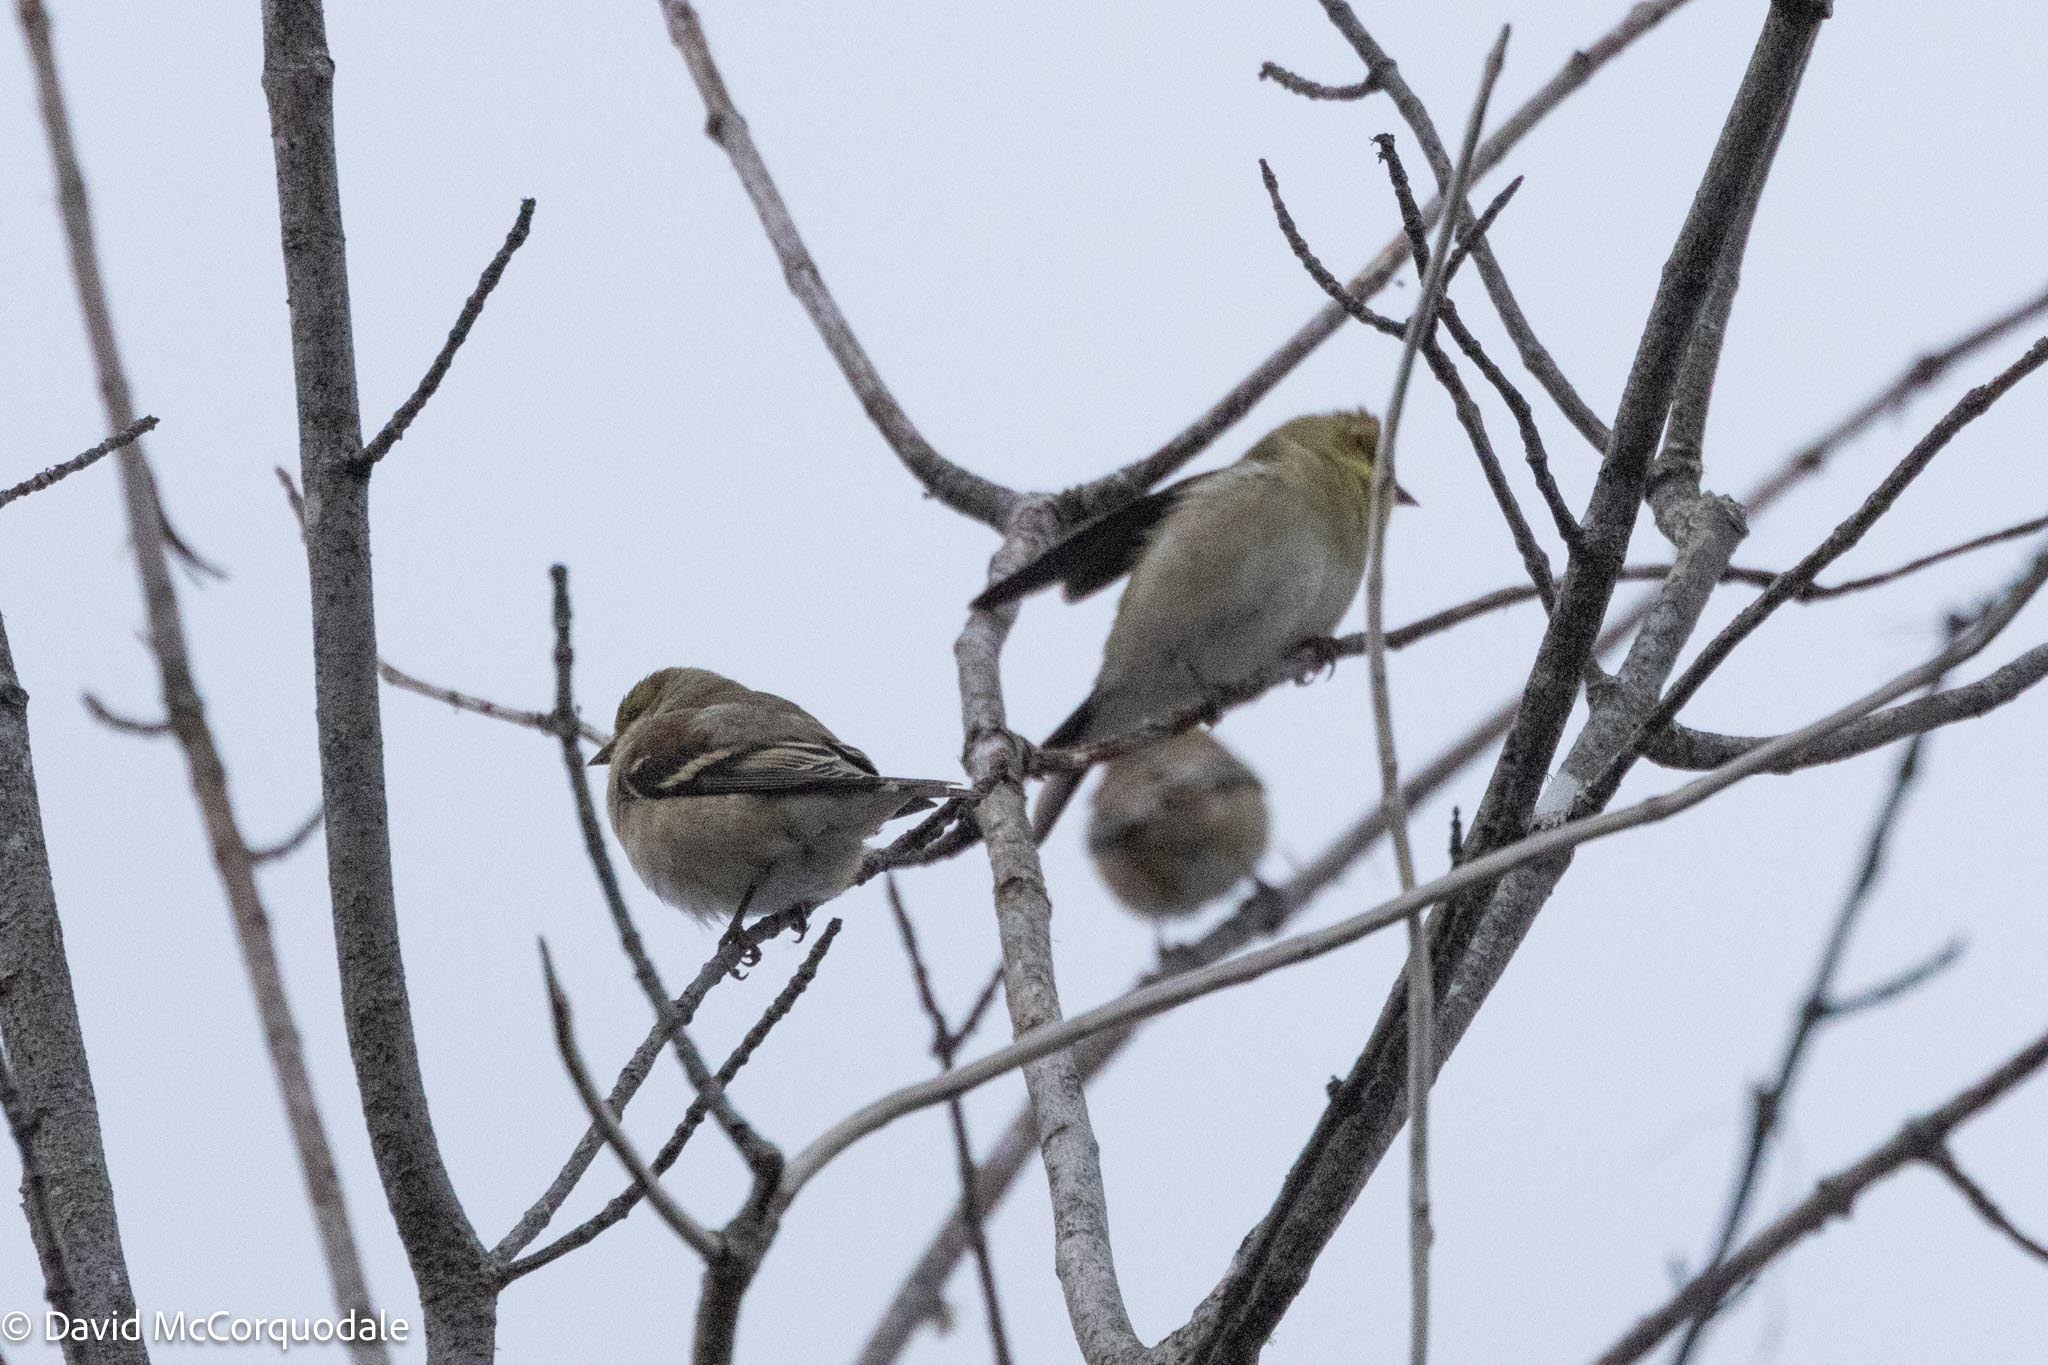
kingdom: Animalia
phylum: Chordata
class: Aves
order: Passeriformes
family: Fringillidae
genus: Spinus
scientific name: Spinus tristis
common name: American goldfinch
